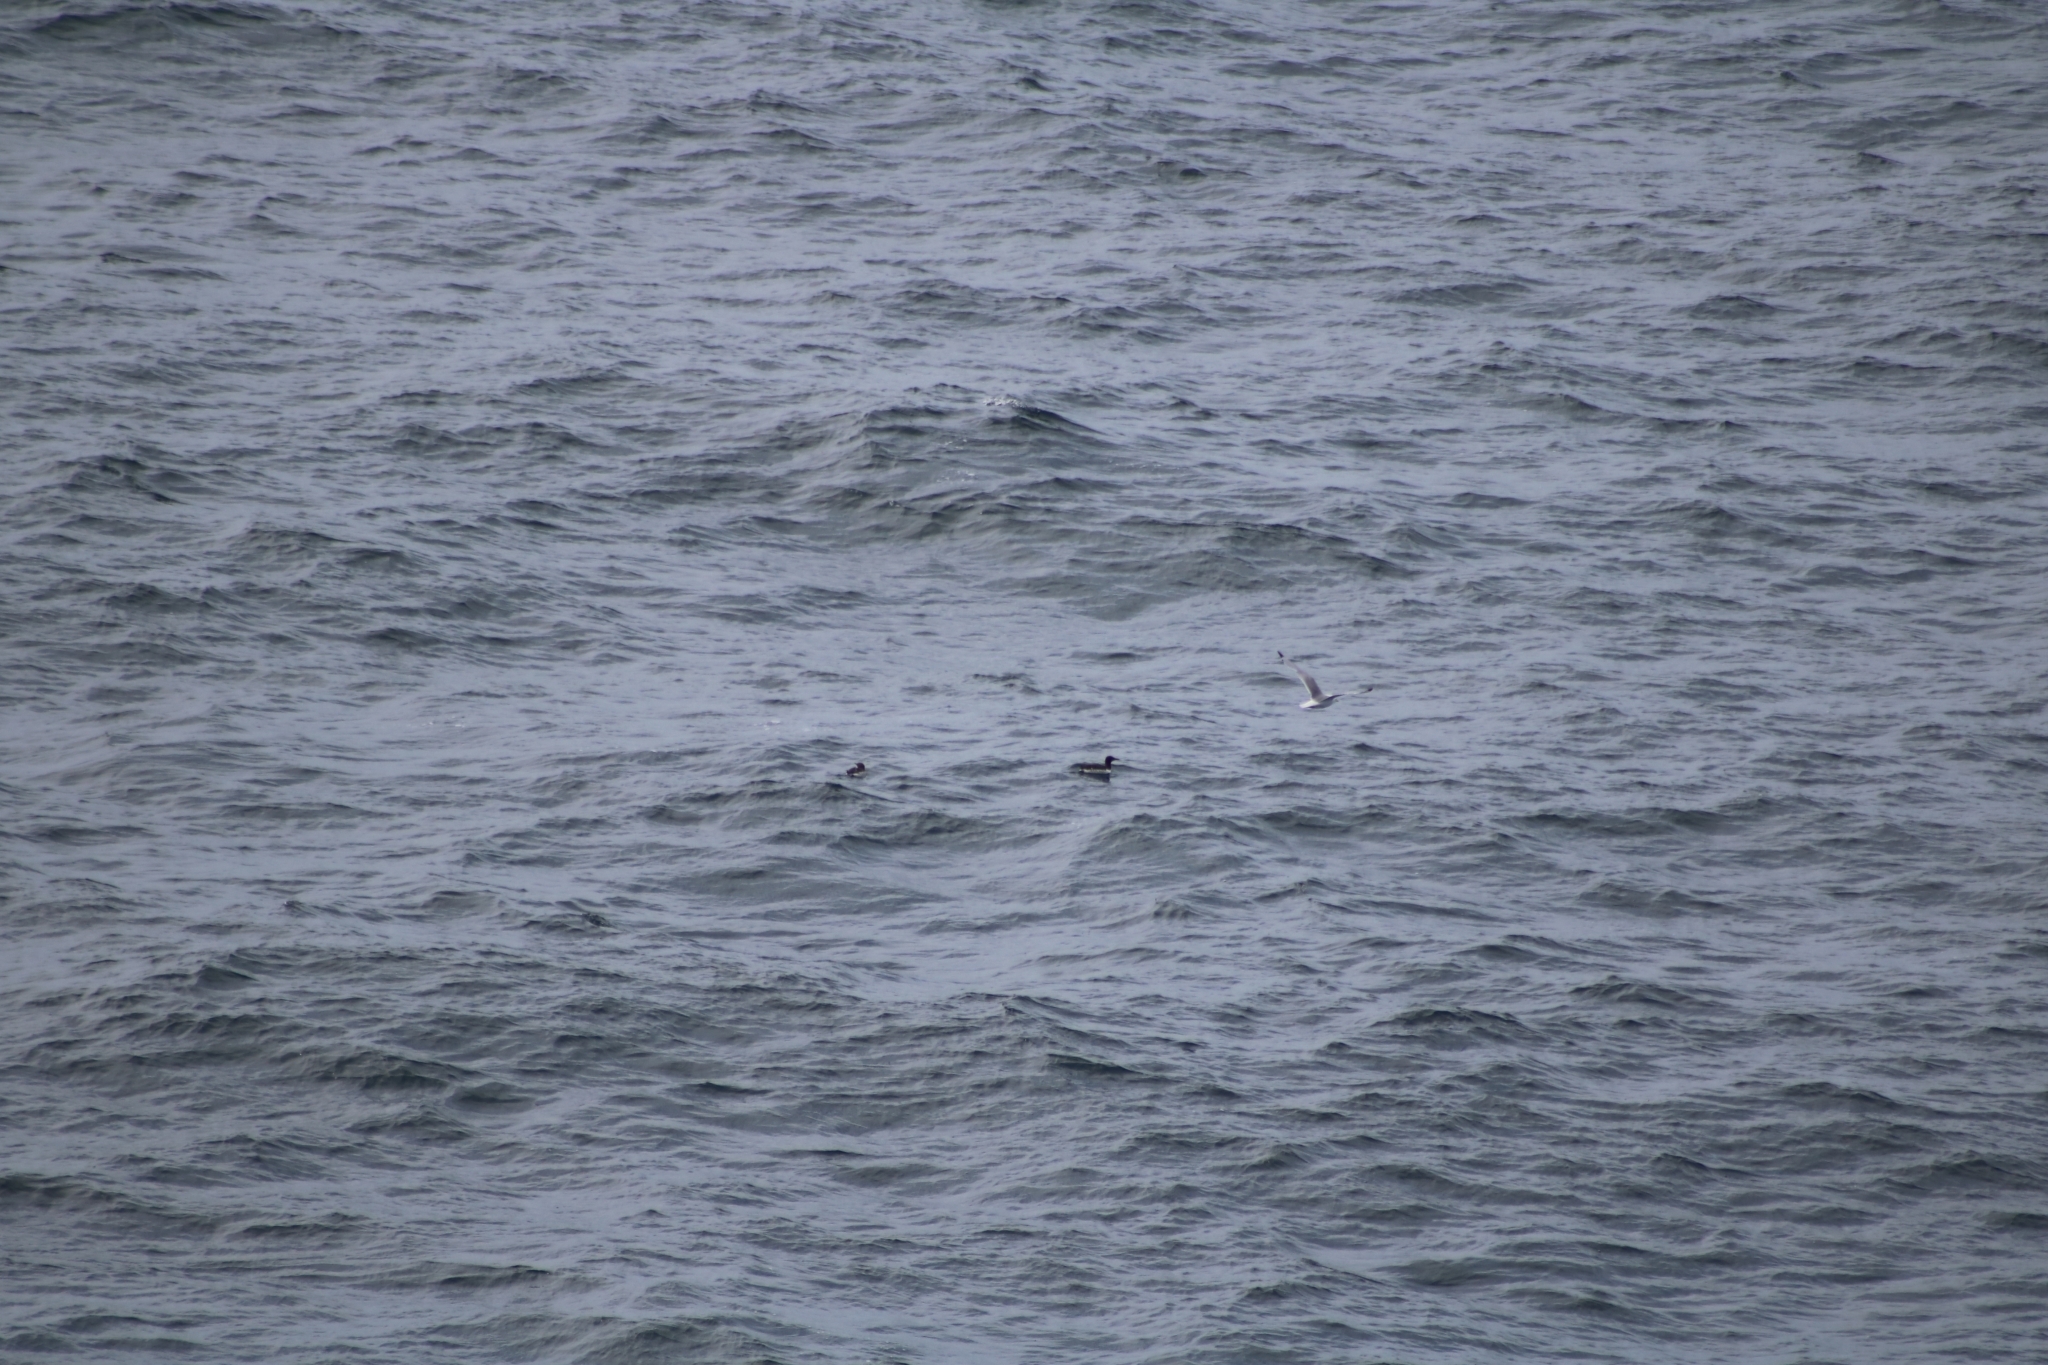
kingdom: Animalia
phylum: Chordata
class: Aves
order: Charadriiformes
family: Alcidae
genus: Uria
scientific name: Uria aalge
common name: Common murre
